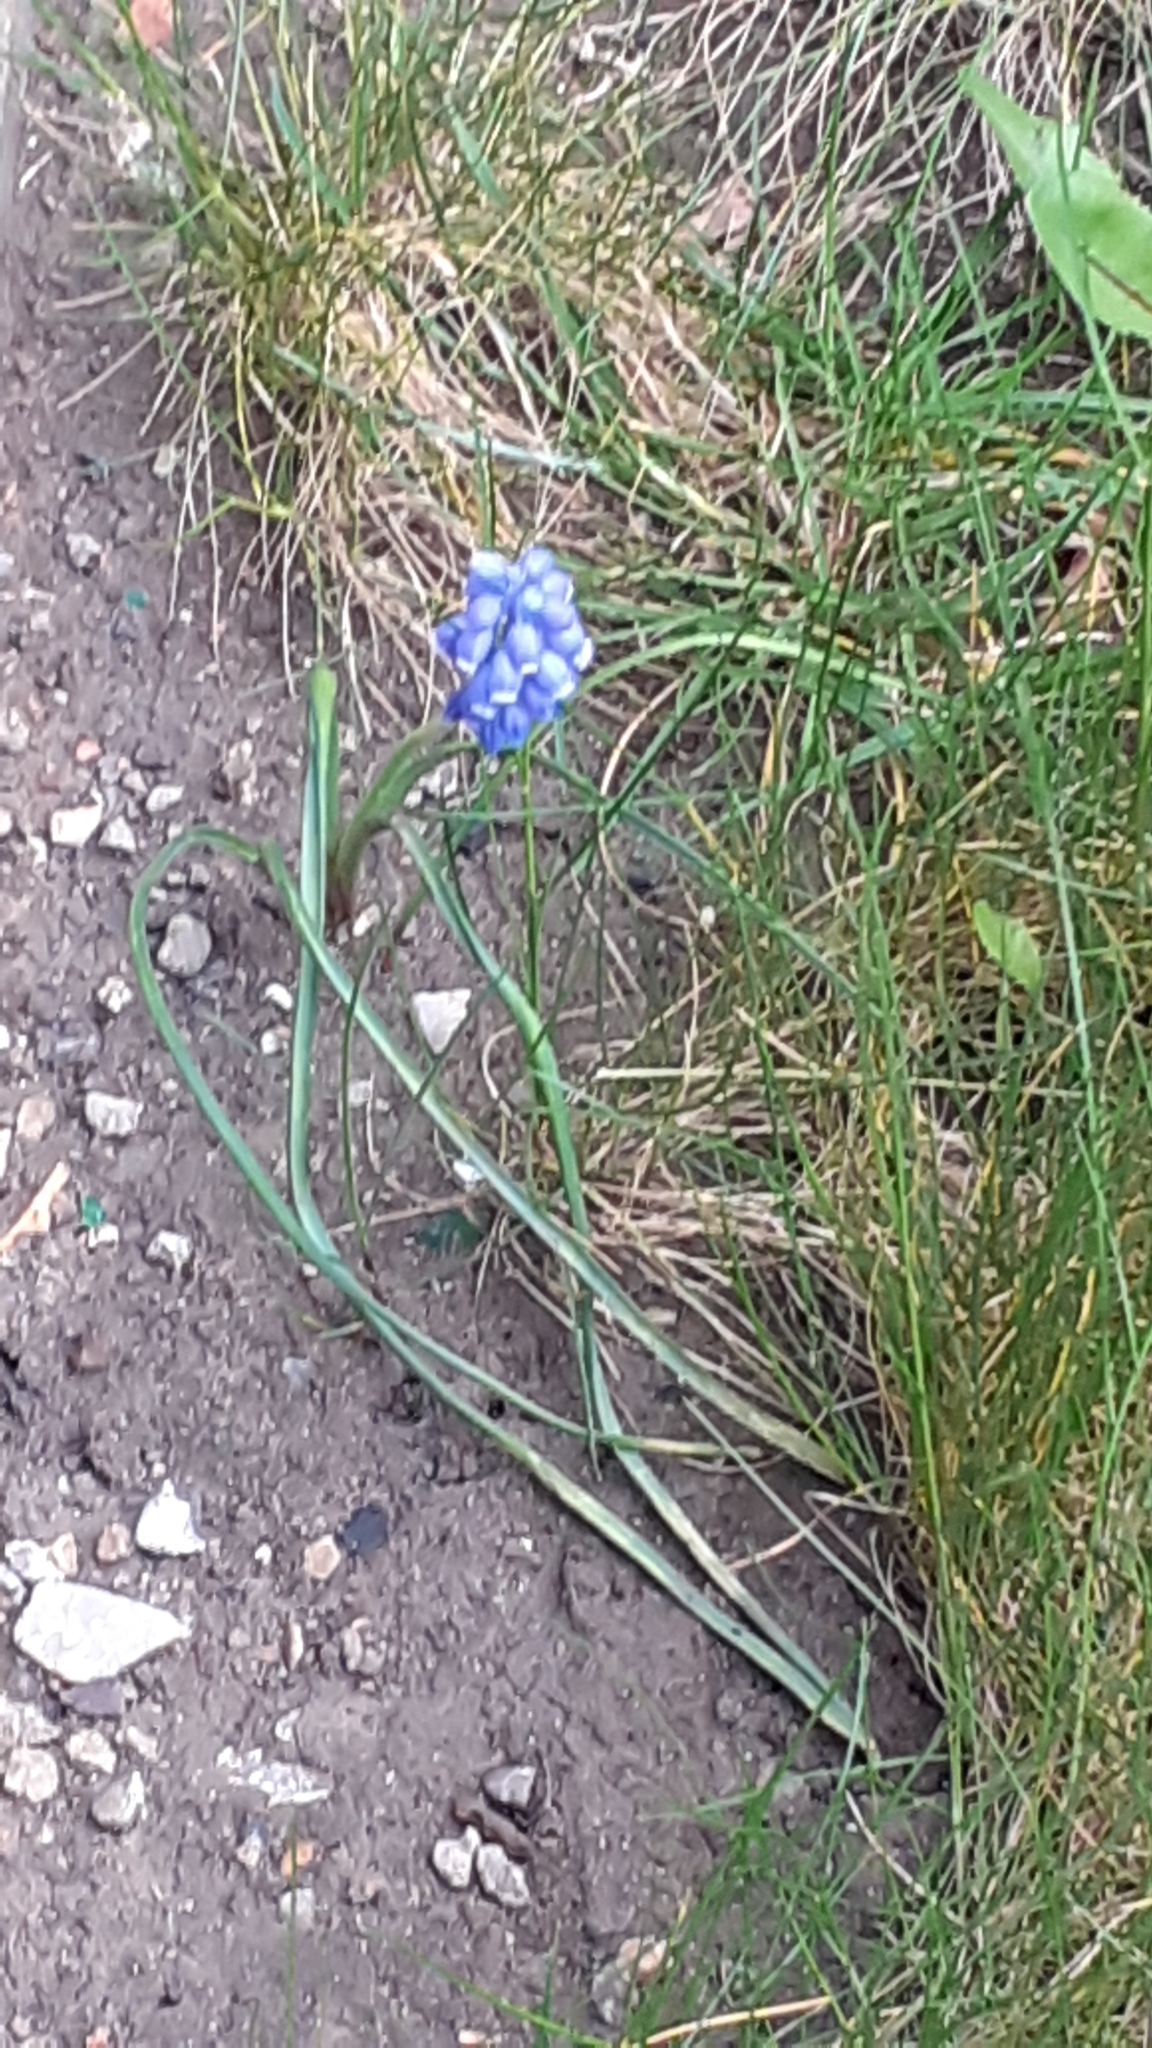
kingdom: Plantae
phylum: Tracheophyta
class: Liliopsida
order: Asparagales
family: Asparagaceae
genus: Muscari
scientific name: Muscari armeniacum
